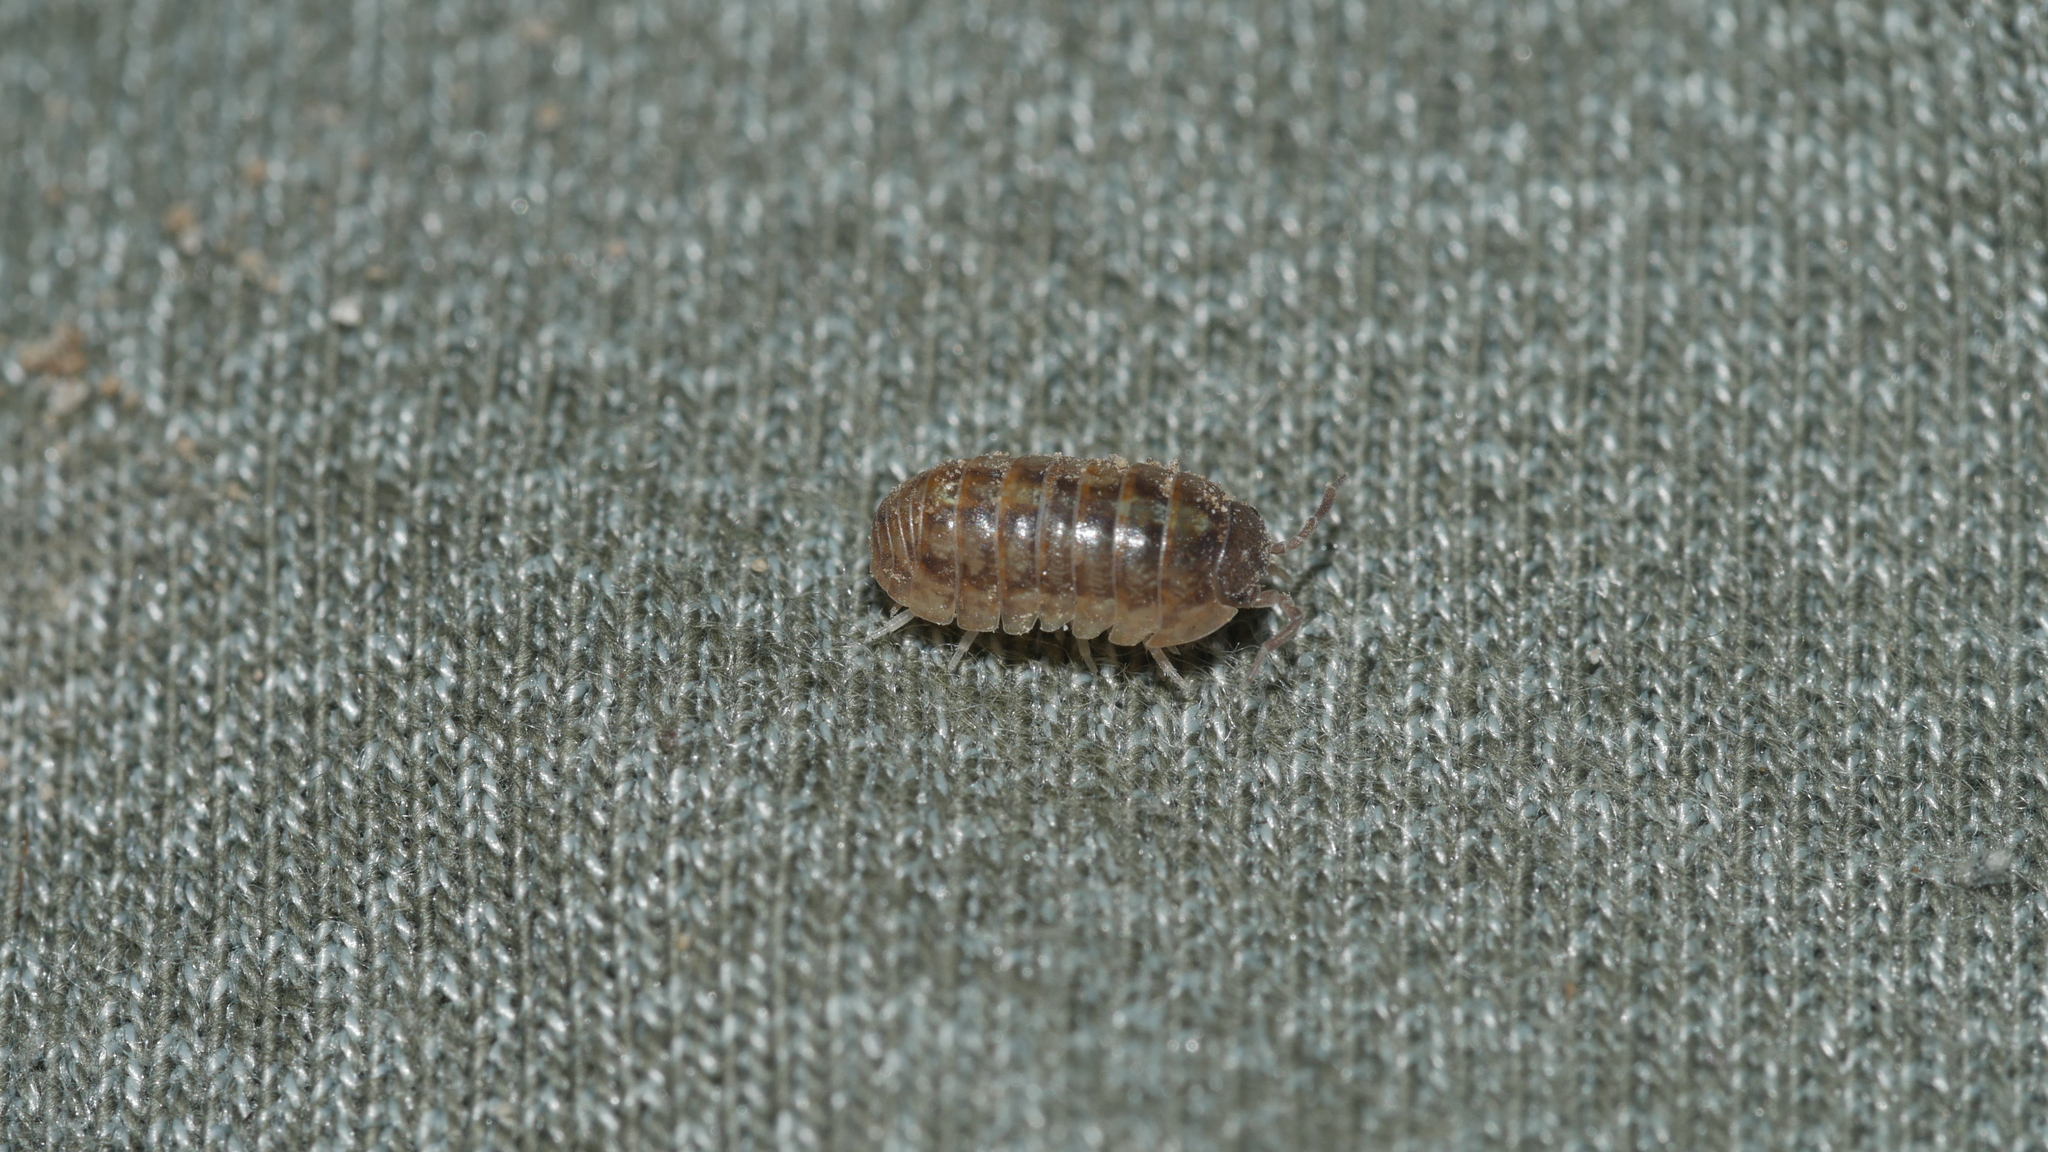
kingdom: Animalia
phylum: Arthropoda
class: Malacostraca
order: Isopoda
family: Armadillidiidae
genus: Armadillidium
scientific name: Armadillidium vulgare
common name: Common pill woodlouse
